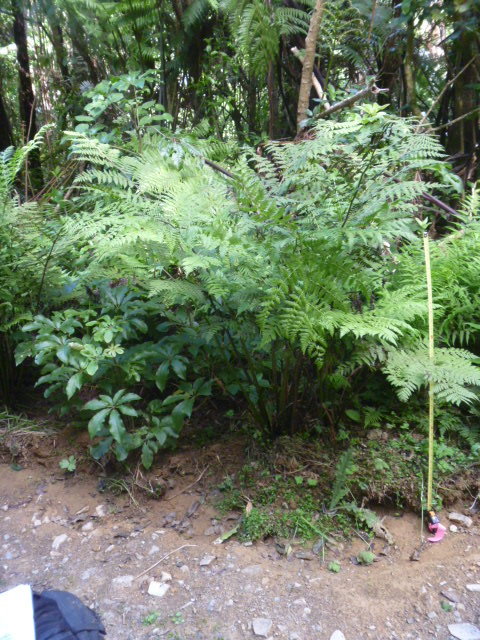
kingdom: Plantae
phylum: Tracheophyta
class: Polypodiopsida
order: Polypodiales
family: Athyriaceae
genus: Diplazium
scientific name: Diplazium australe
